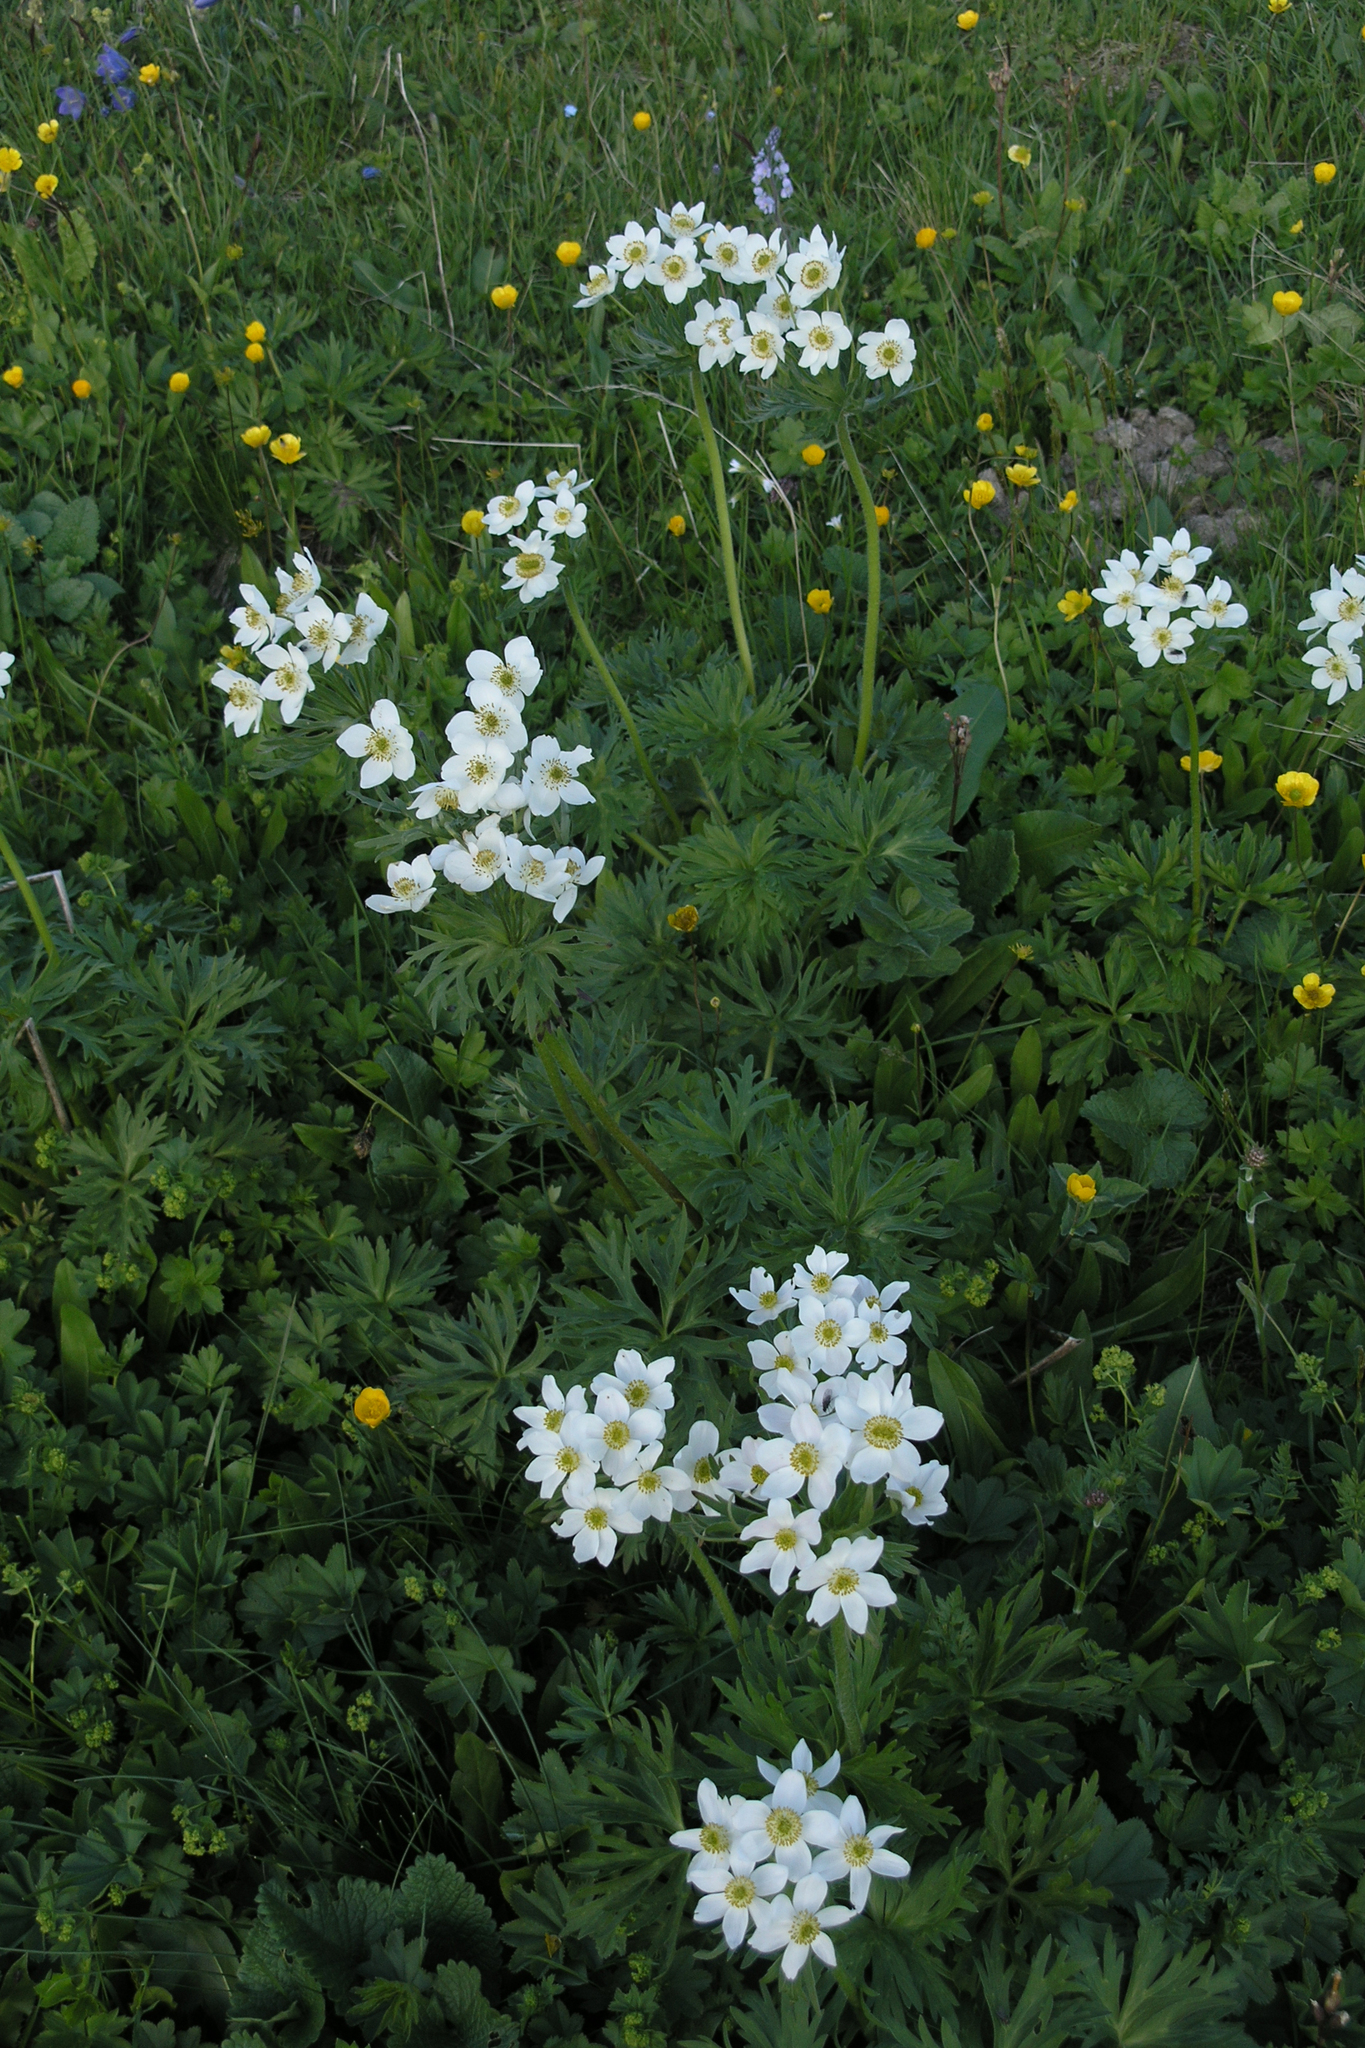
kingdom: Plantae
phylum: Tracheophyta
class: Magnoliopsida
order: Ranunculales
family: Ranunculaceae
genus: Anemonastrum
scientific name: Anemonastrum narcissiflorum
